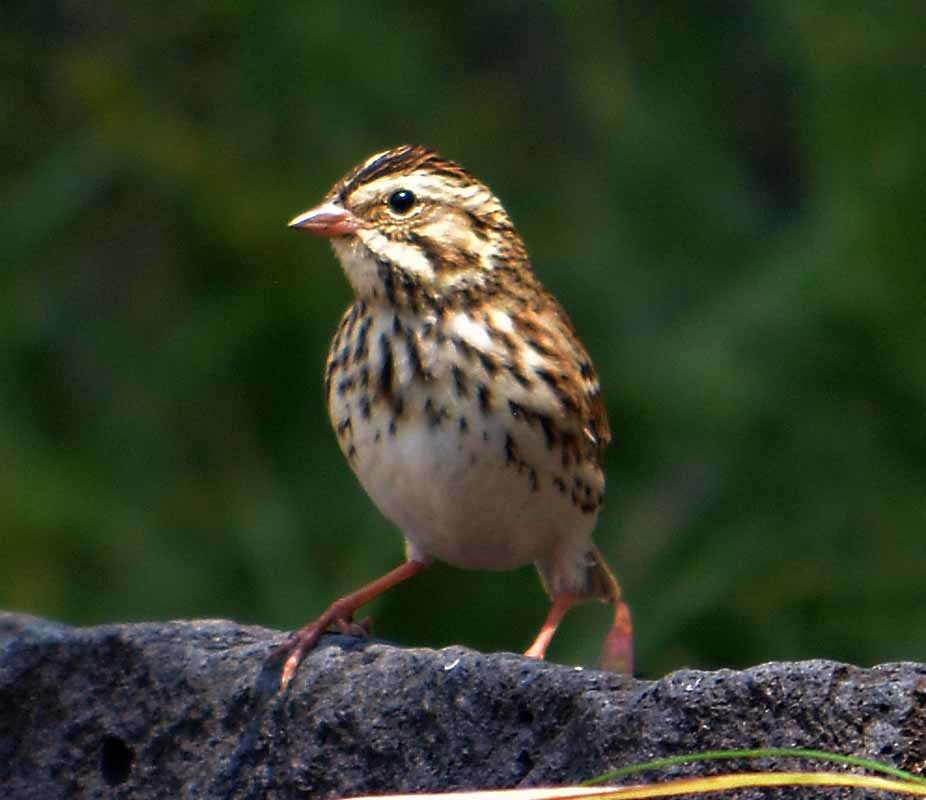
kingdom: Animalia
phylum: Chordata
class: Aves
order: Passeriformes
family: Passerellidae
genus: Passerculus
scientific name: Passerculus sandwichensis
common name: Savannah sparrow
